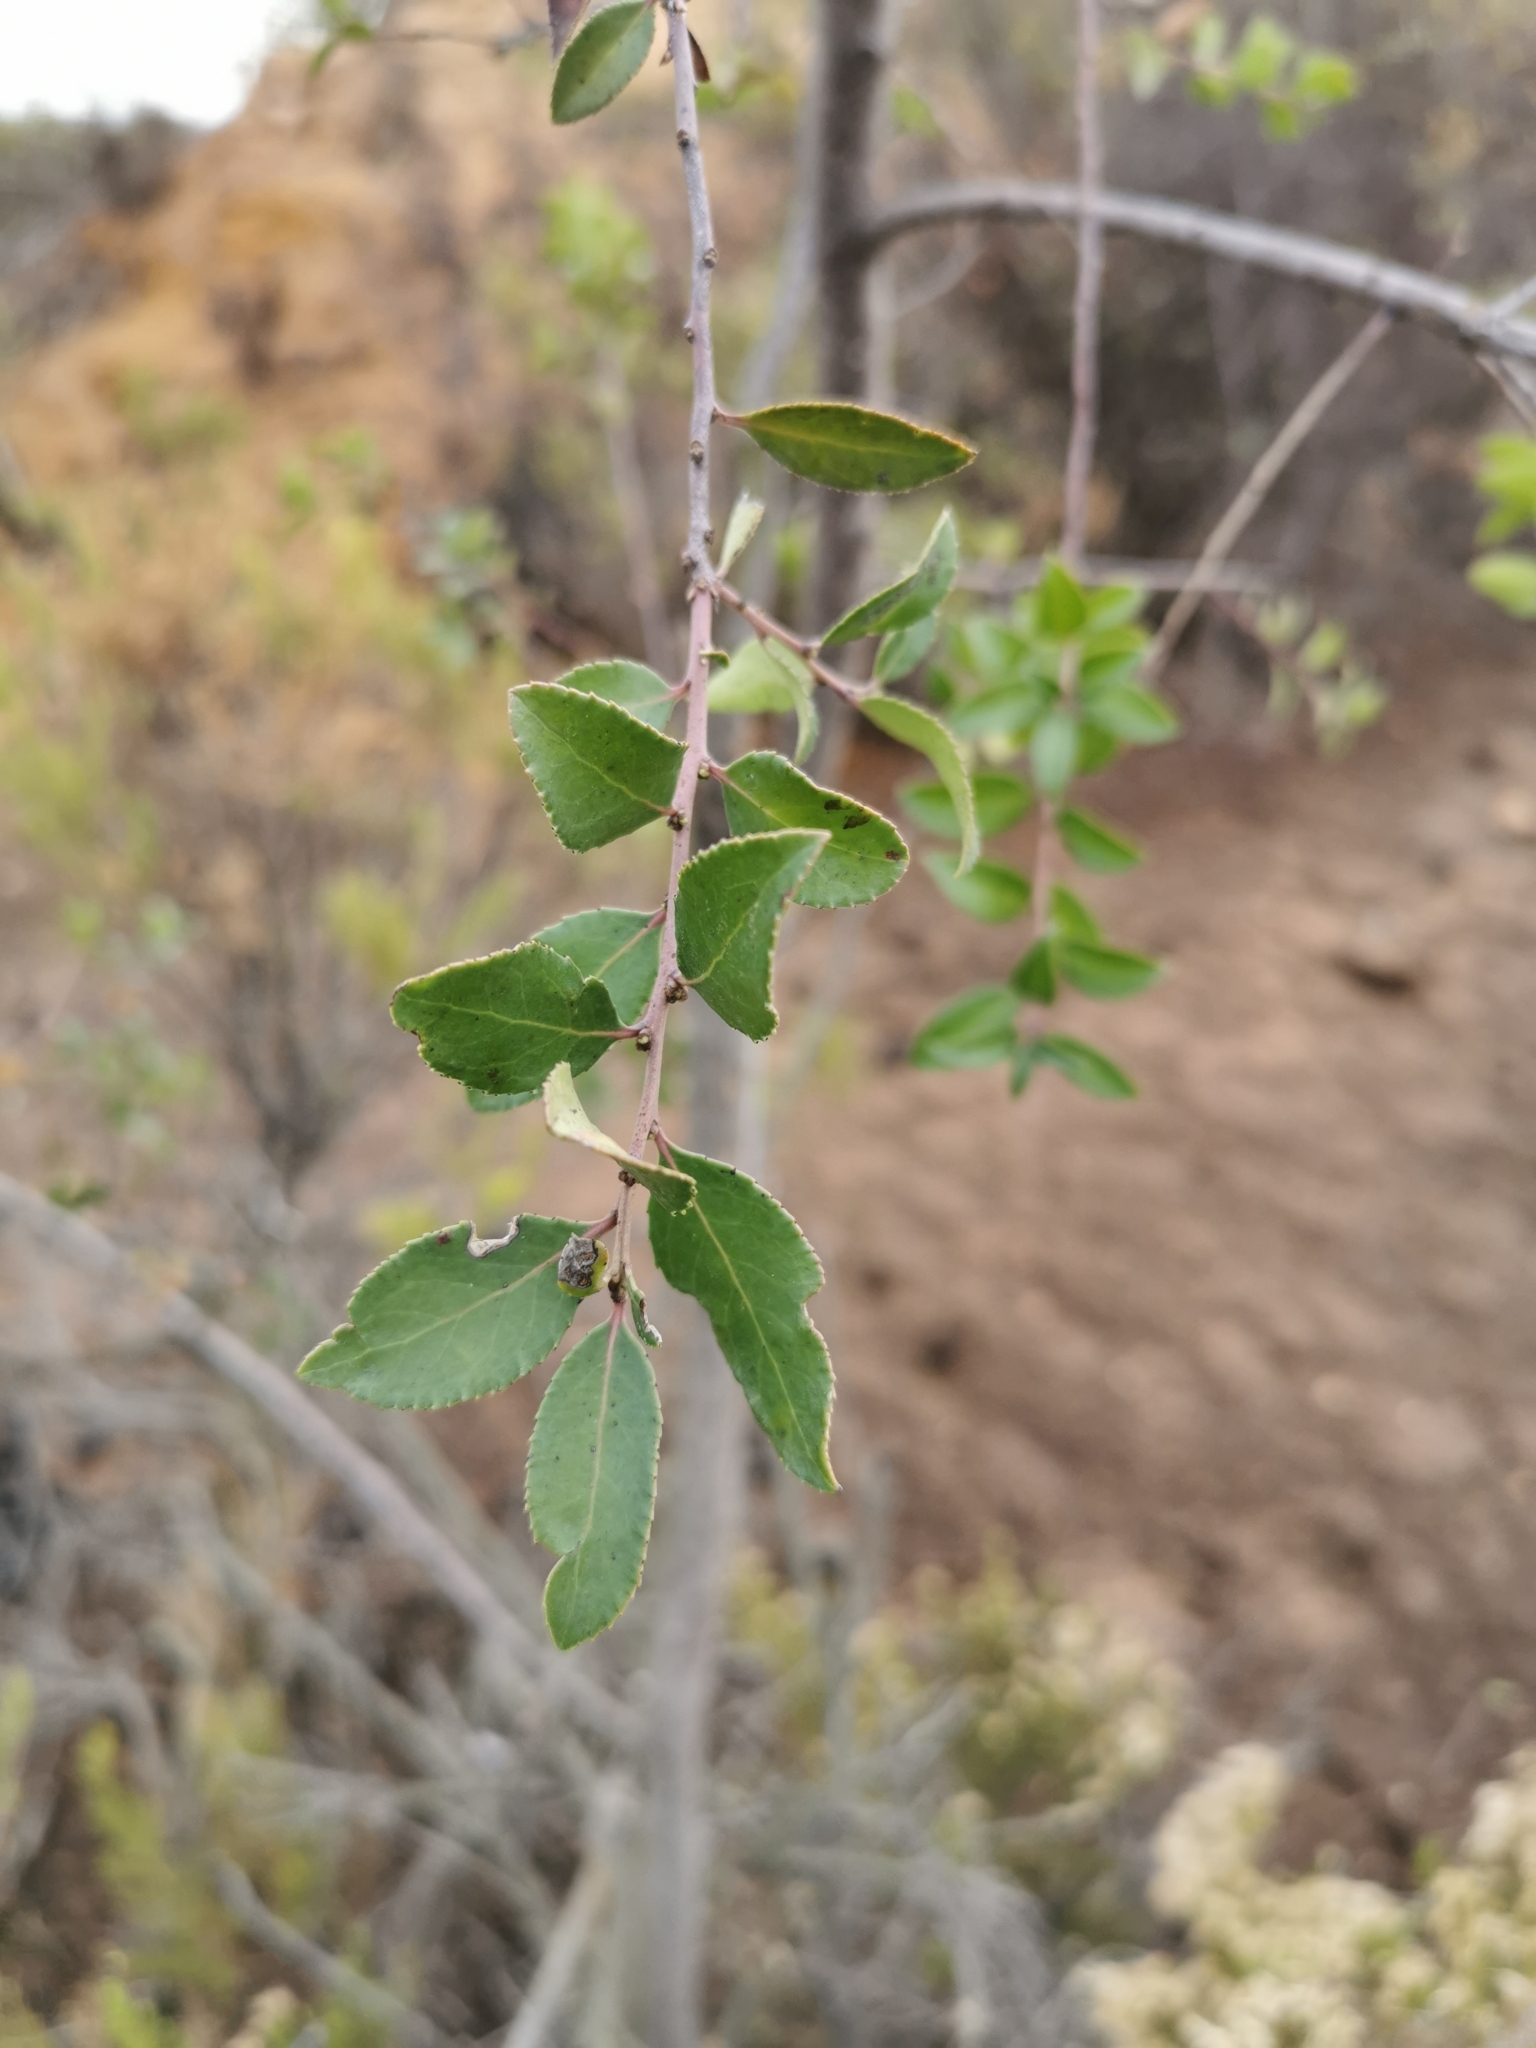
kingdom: Plantae
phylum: Tracheophyta
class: Magnoliopsida
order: Celastrales
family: Celastraceae
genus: Maytenus
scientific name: Maytenus boaria
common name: Mayten
